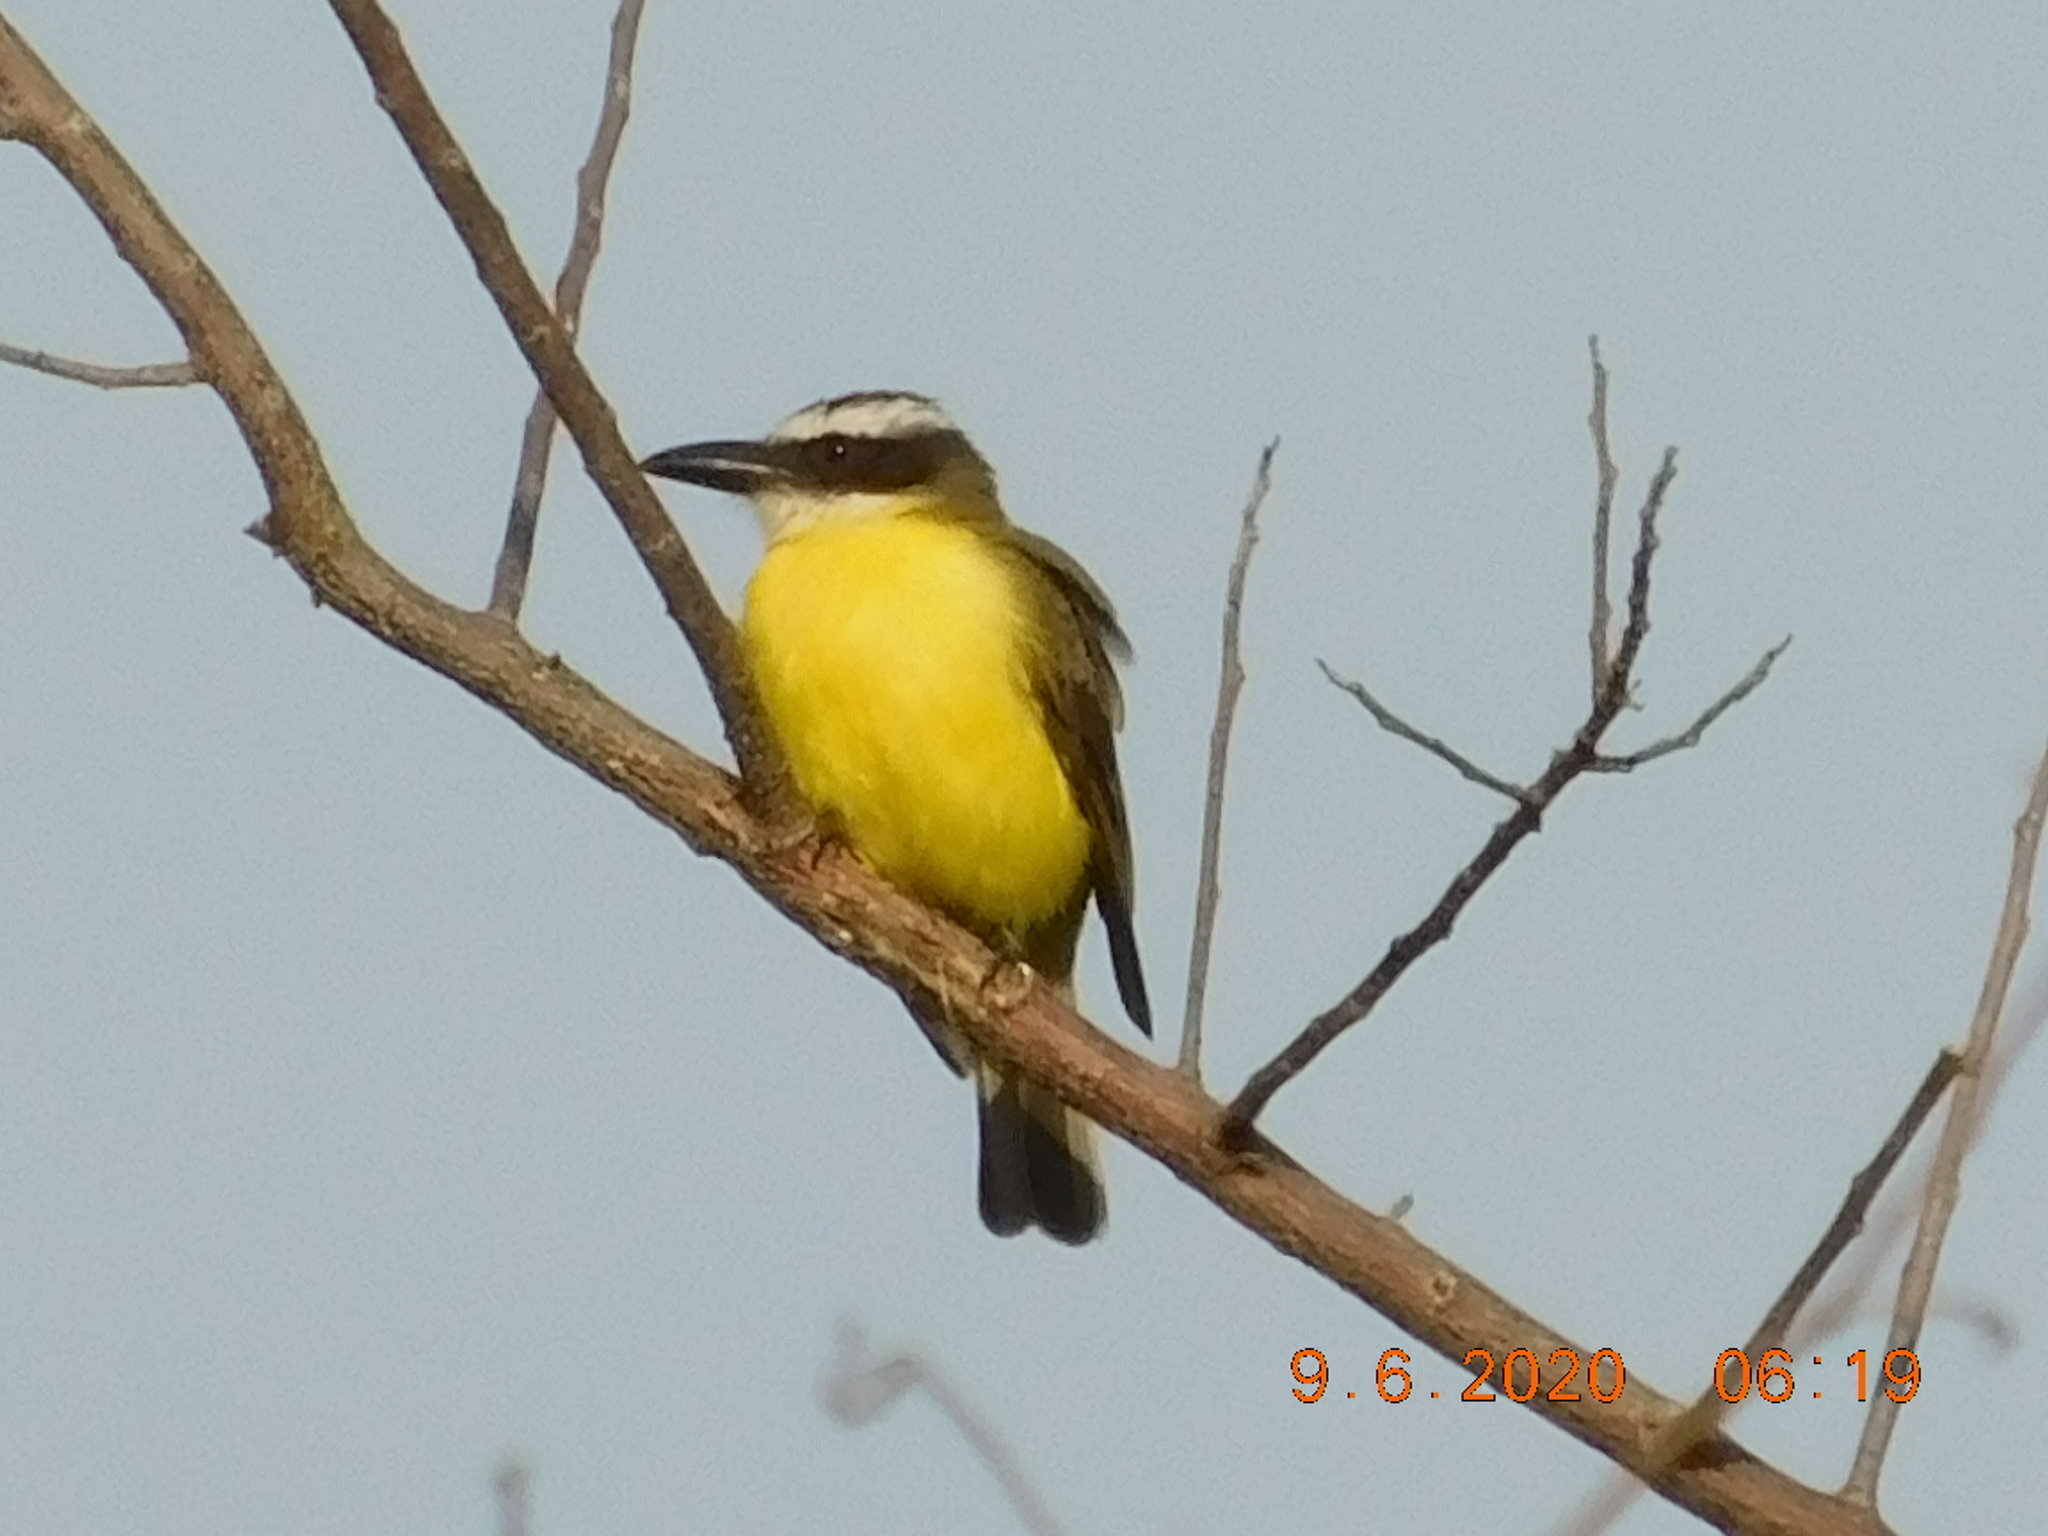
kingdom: Animalia
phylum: Chordata
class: Aves
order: Passeriformes
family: Tyrannidae
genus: Megarynchus
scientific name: Megarynchus pitangua
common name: Boat-billed flycatcher
